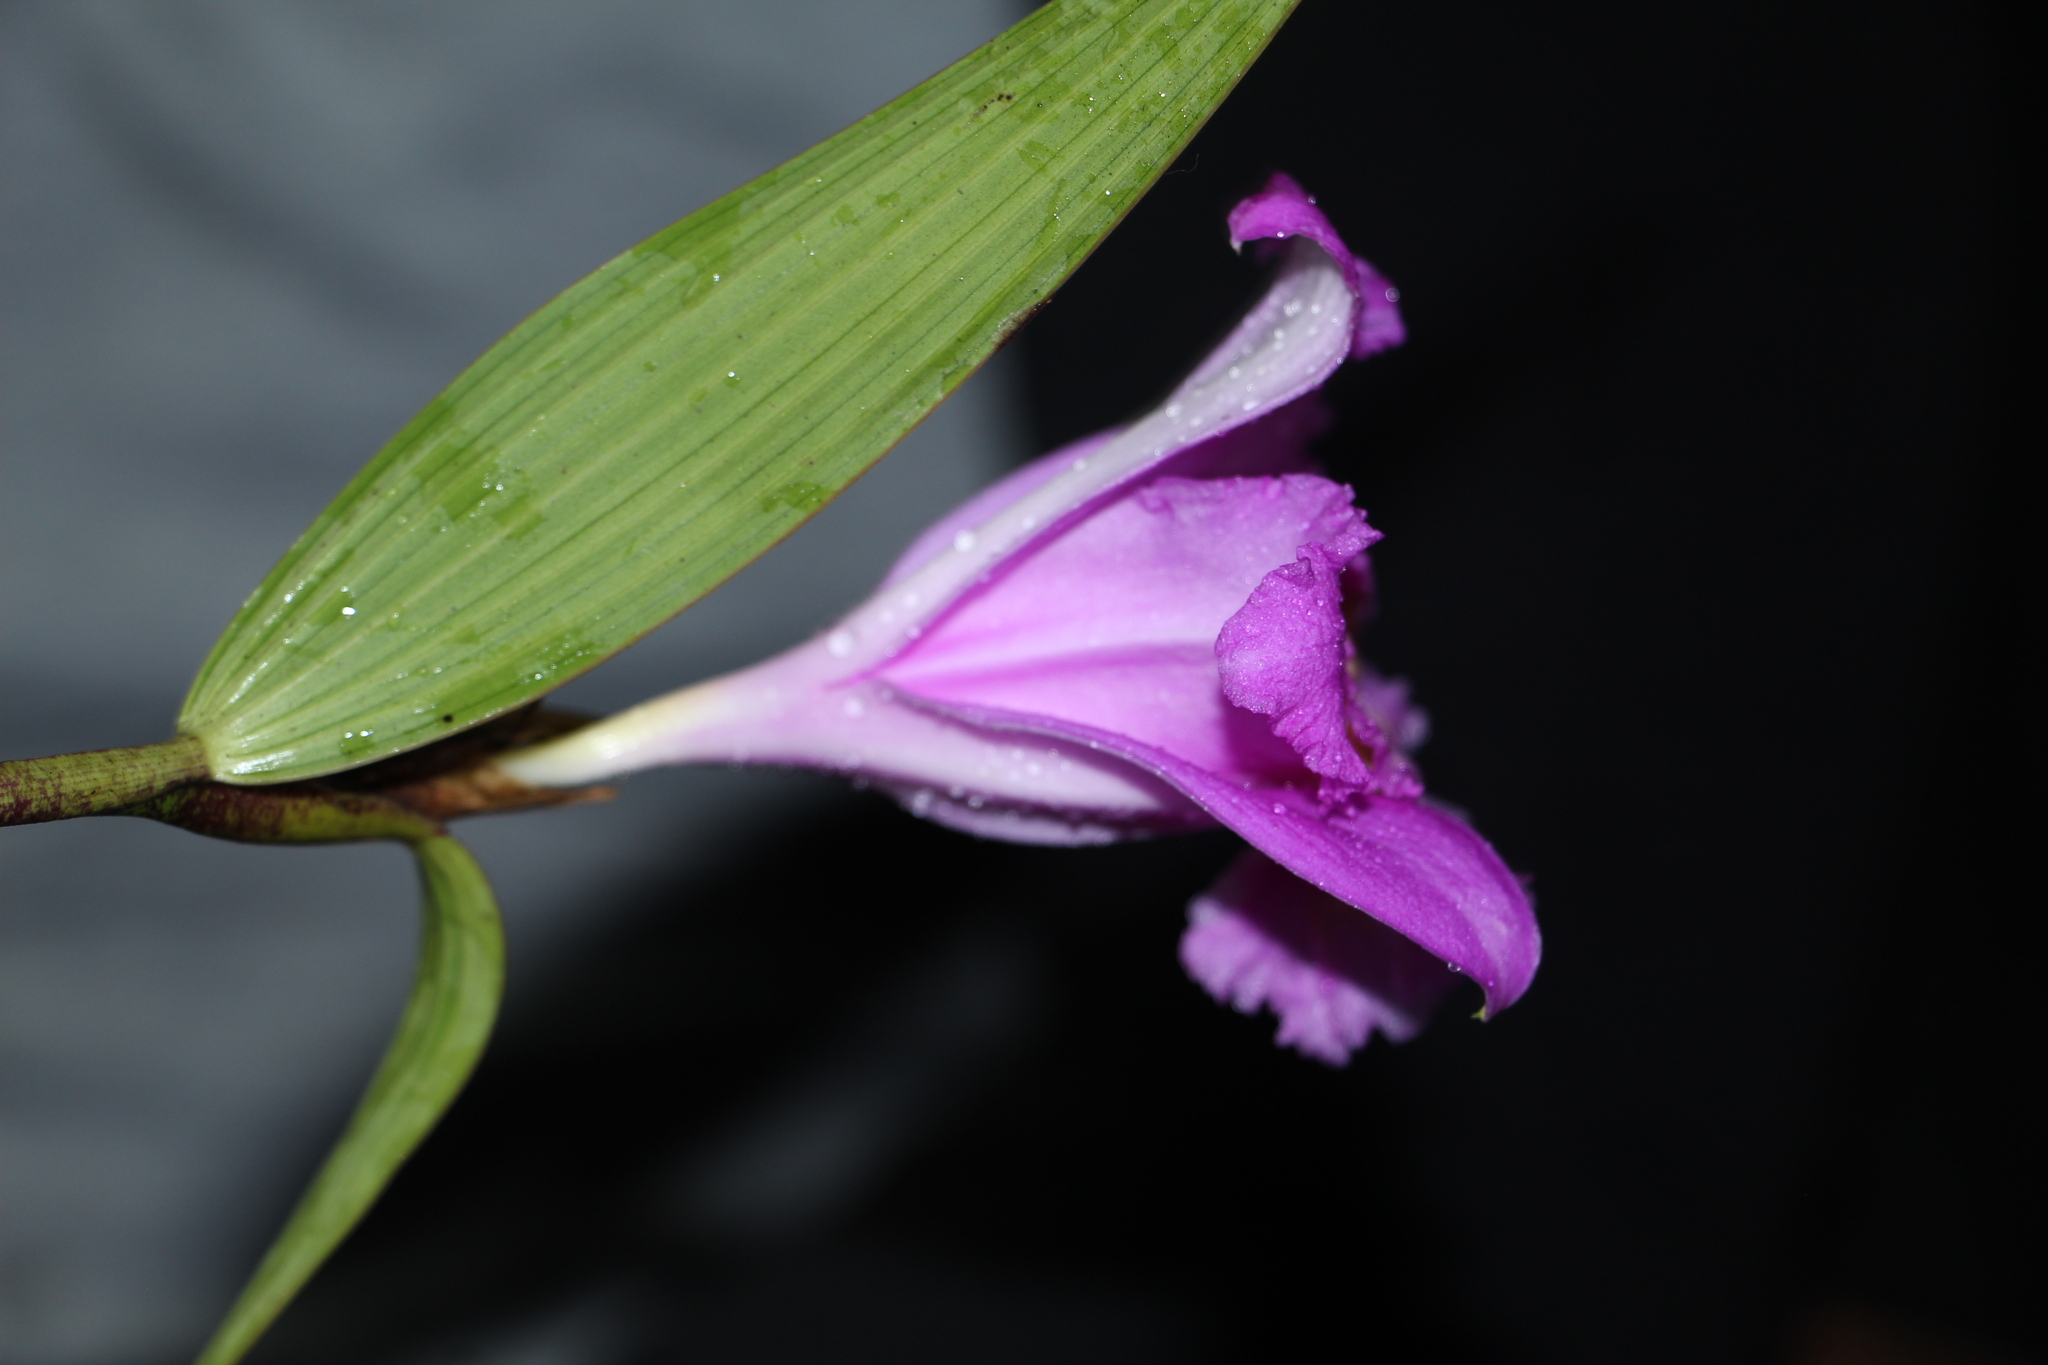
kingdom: Plantae
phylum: Tracheophyta
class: Liliopsida
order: Asparagales
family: Orchidaceae
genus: Sobralia
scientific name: Sobralia violacea
